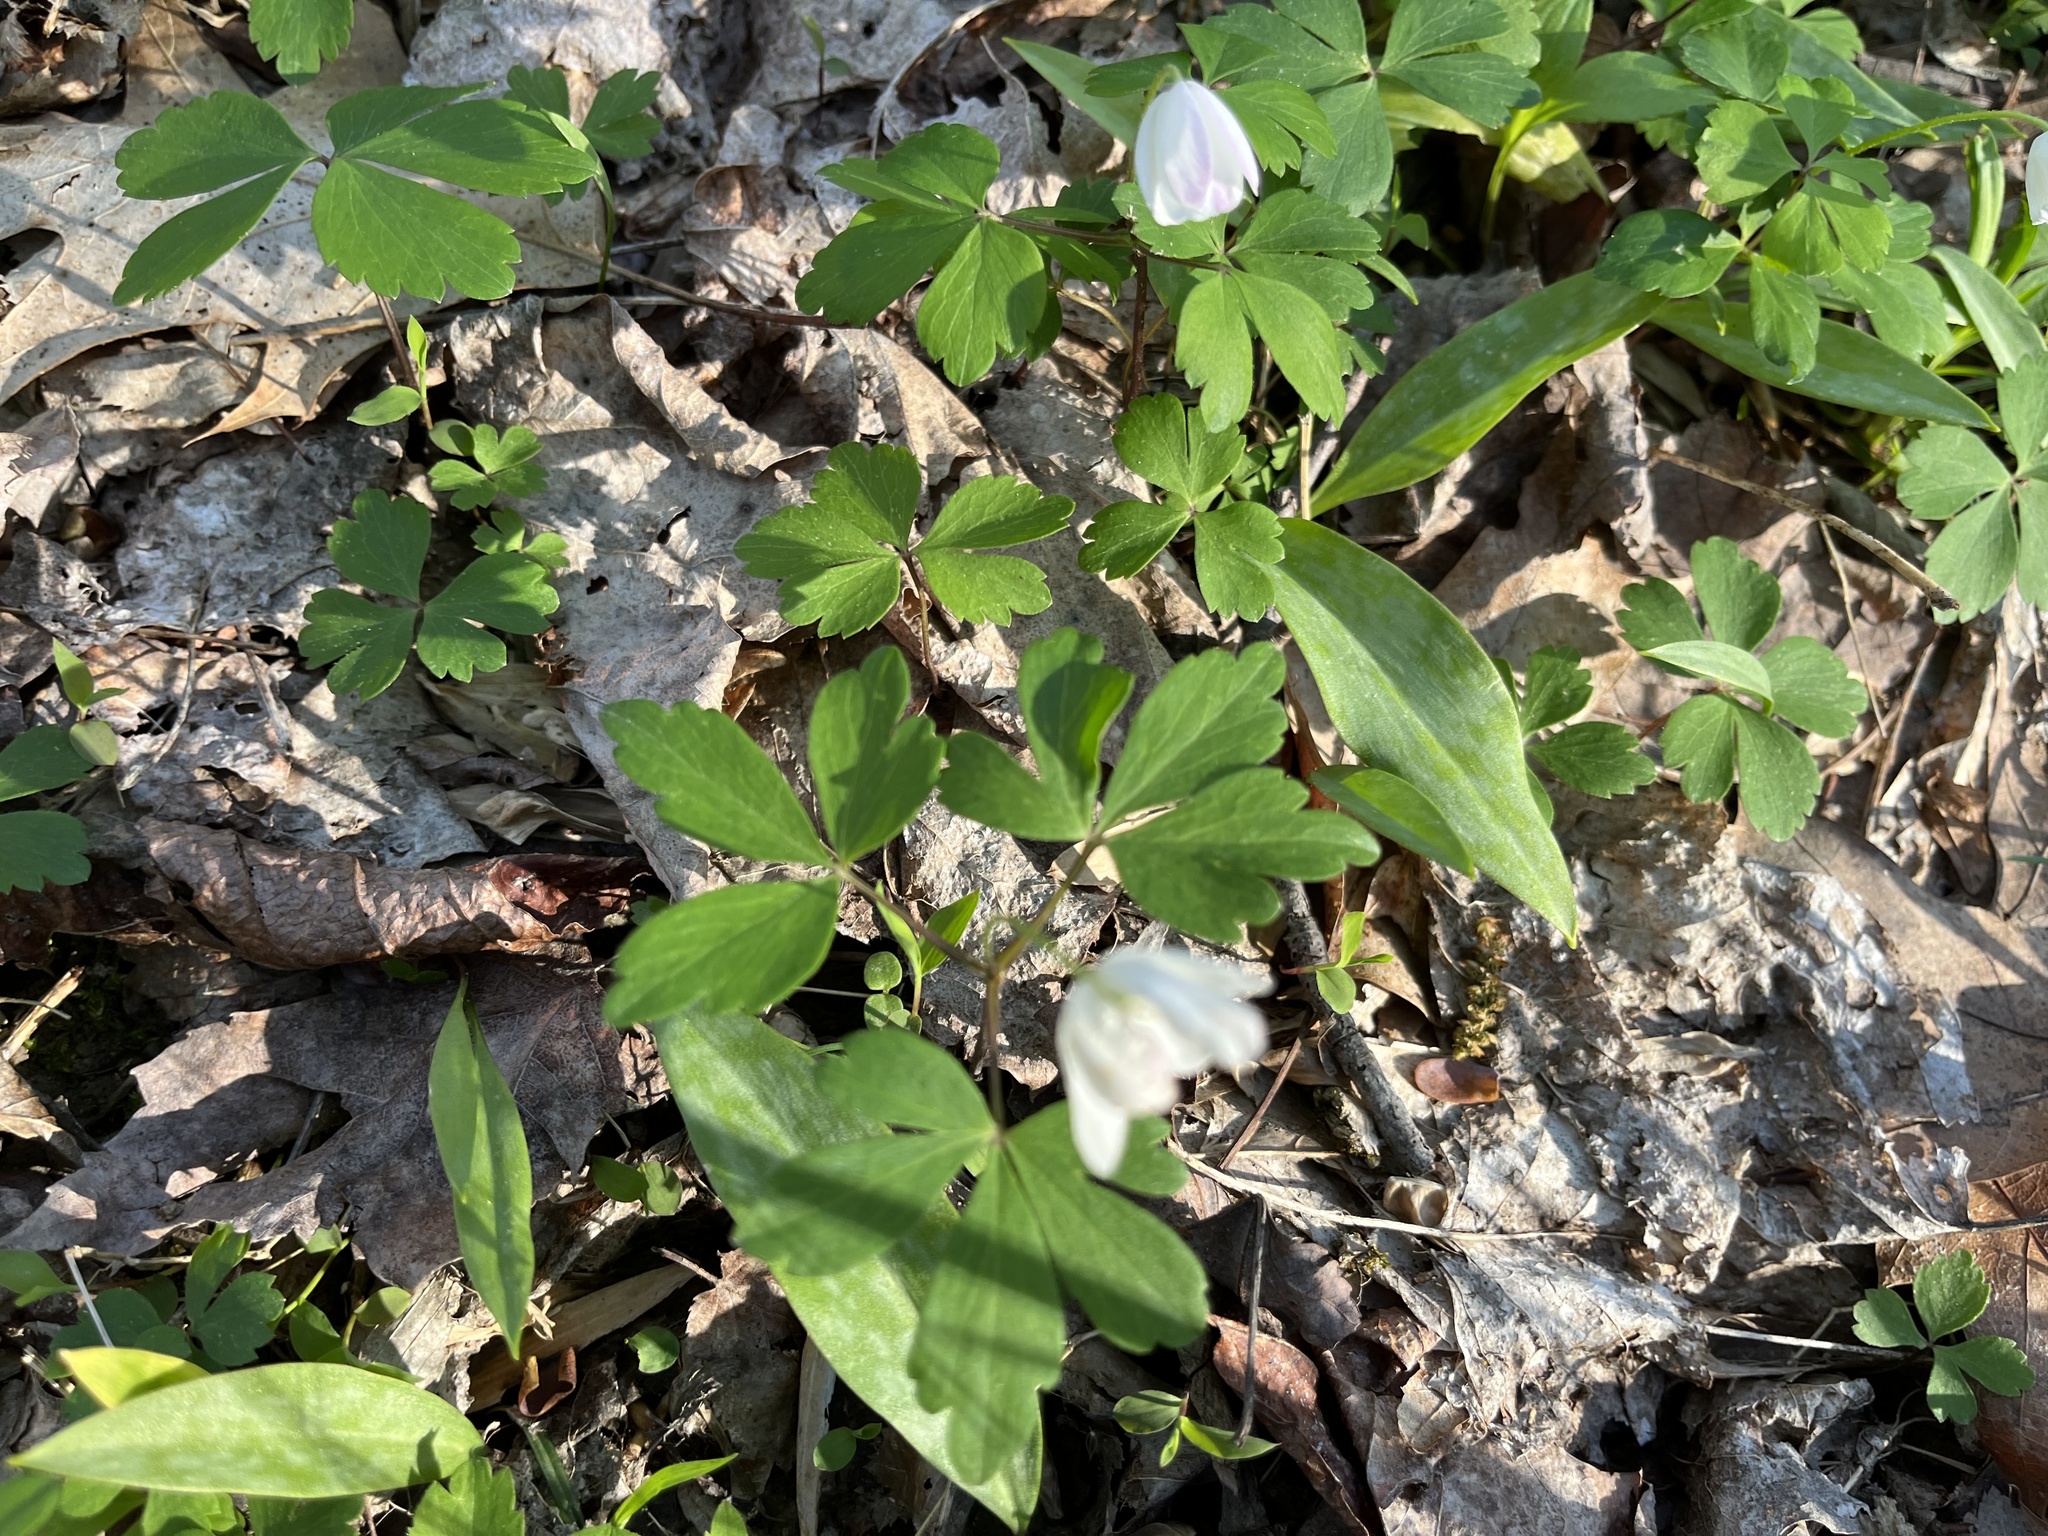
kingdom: Plantae
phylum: Tracheophyta
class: Magnoliopsida
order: Ranunculales
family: Ranunculaceae
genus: Anemone
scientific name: Anemone quinquefolia
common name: Wood anemone
